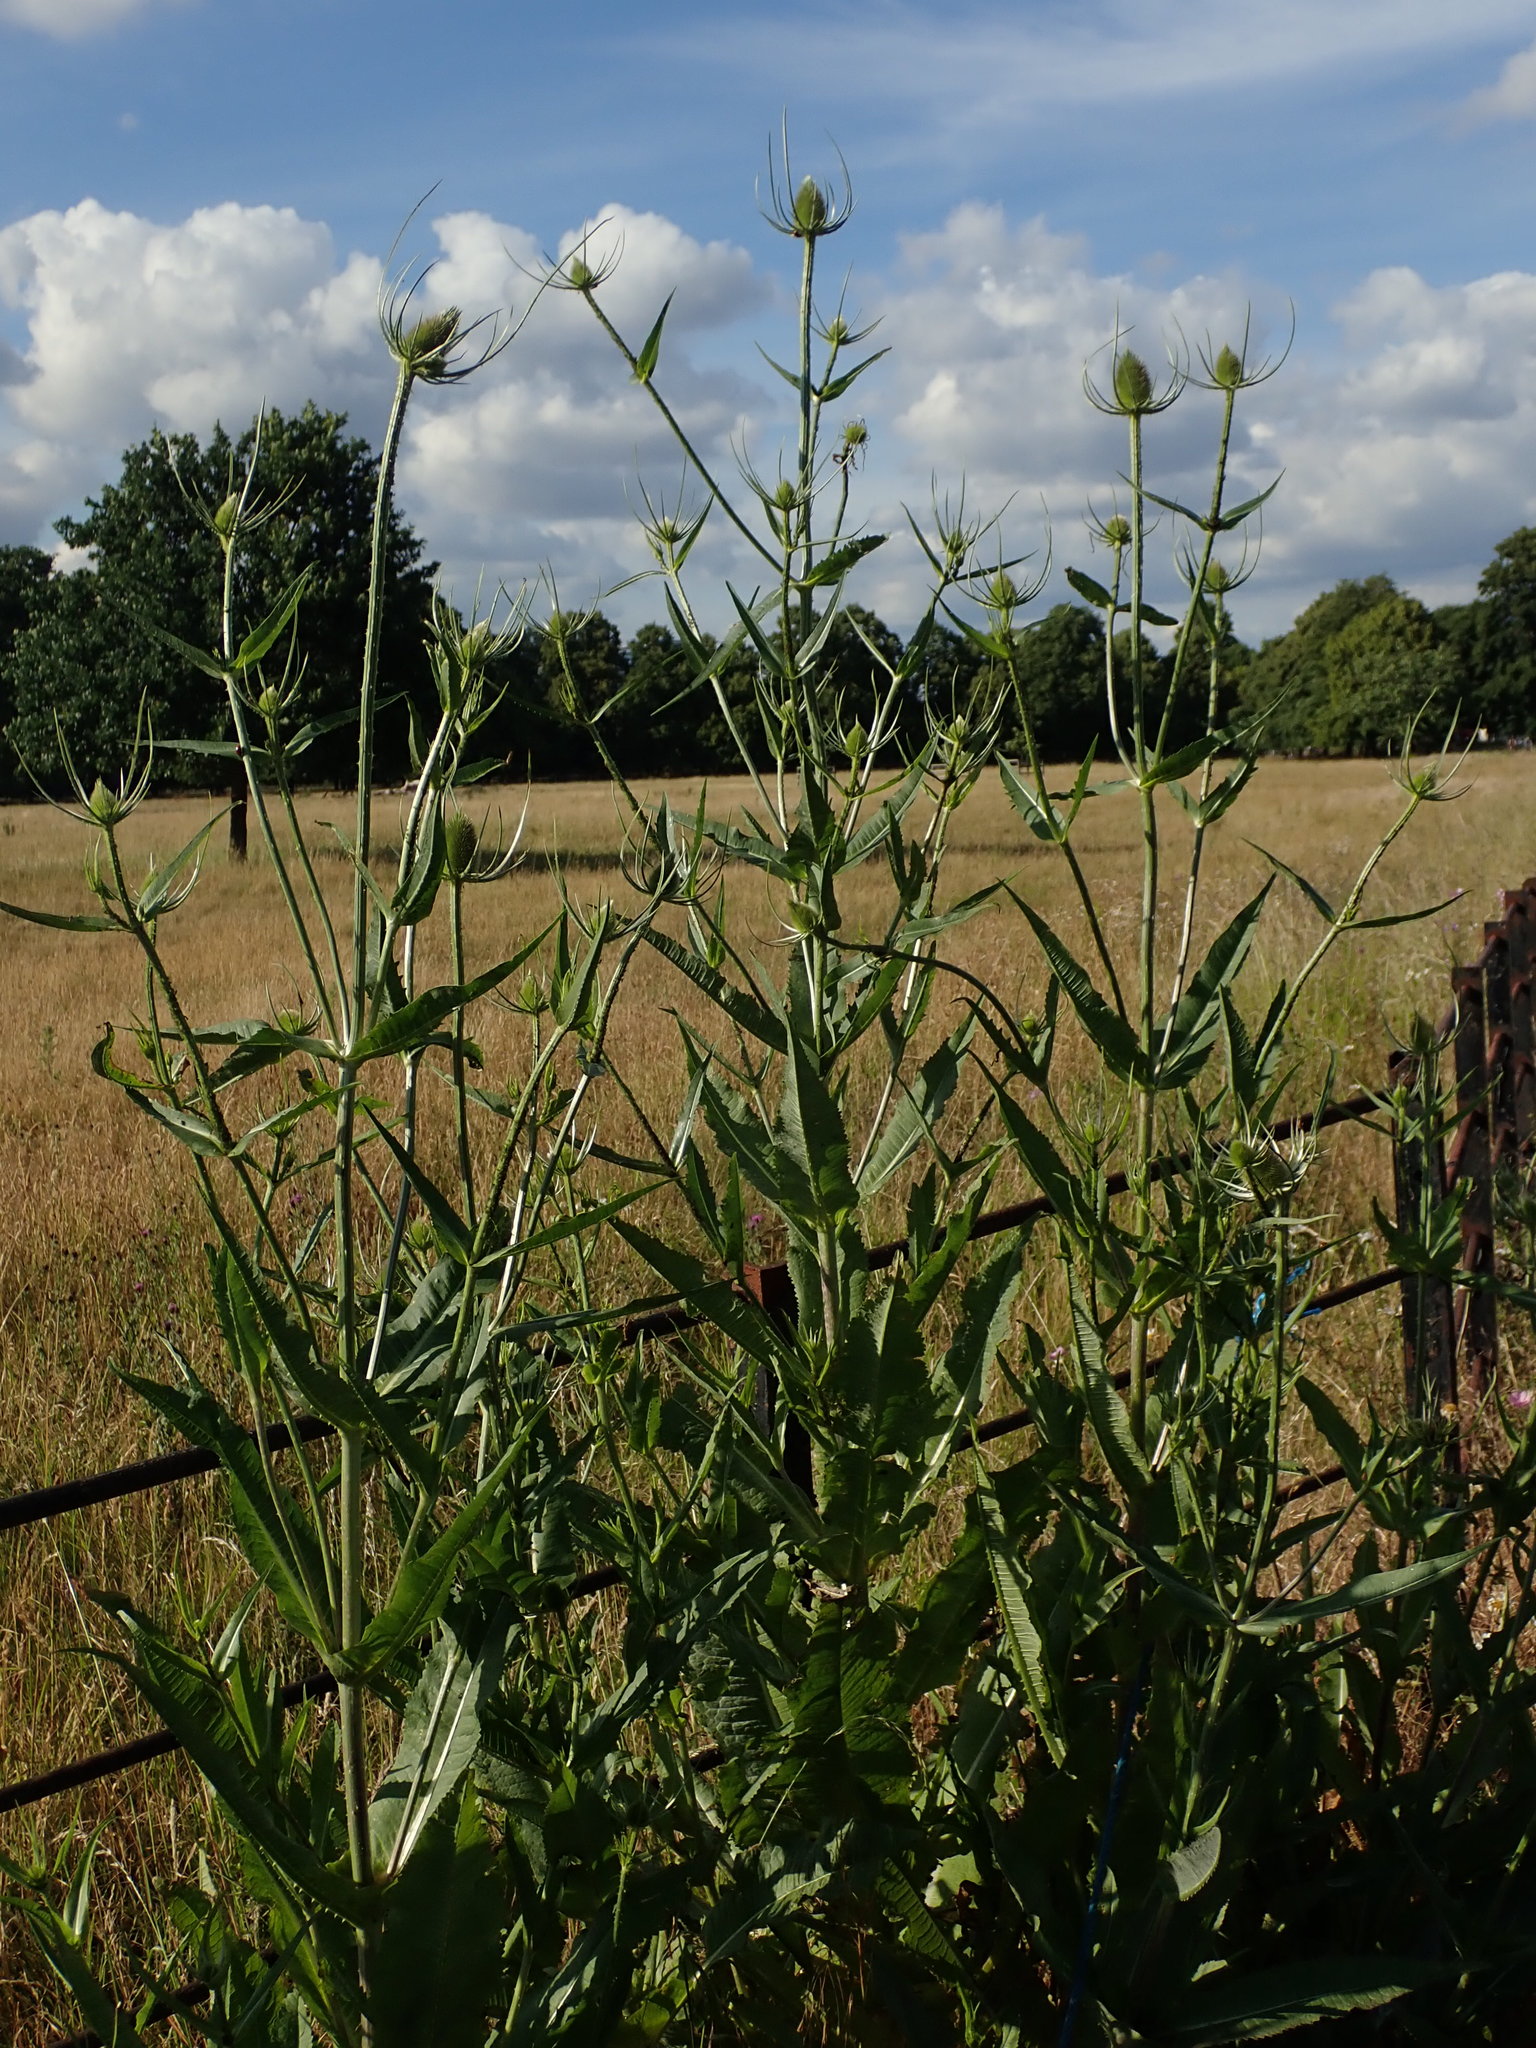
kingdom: Plantae
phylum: Tracheophyta
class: Magnoliopsida
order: Dipsacales
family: Caprifoliaceae
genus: Dipsacus
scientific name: Dipsacus fullonum
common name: Teasel
